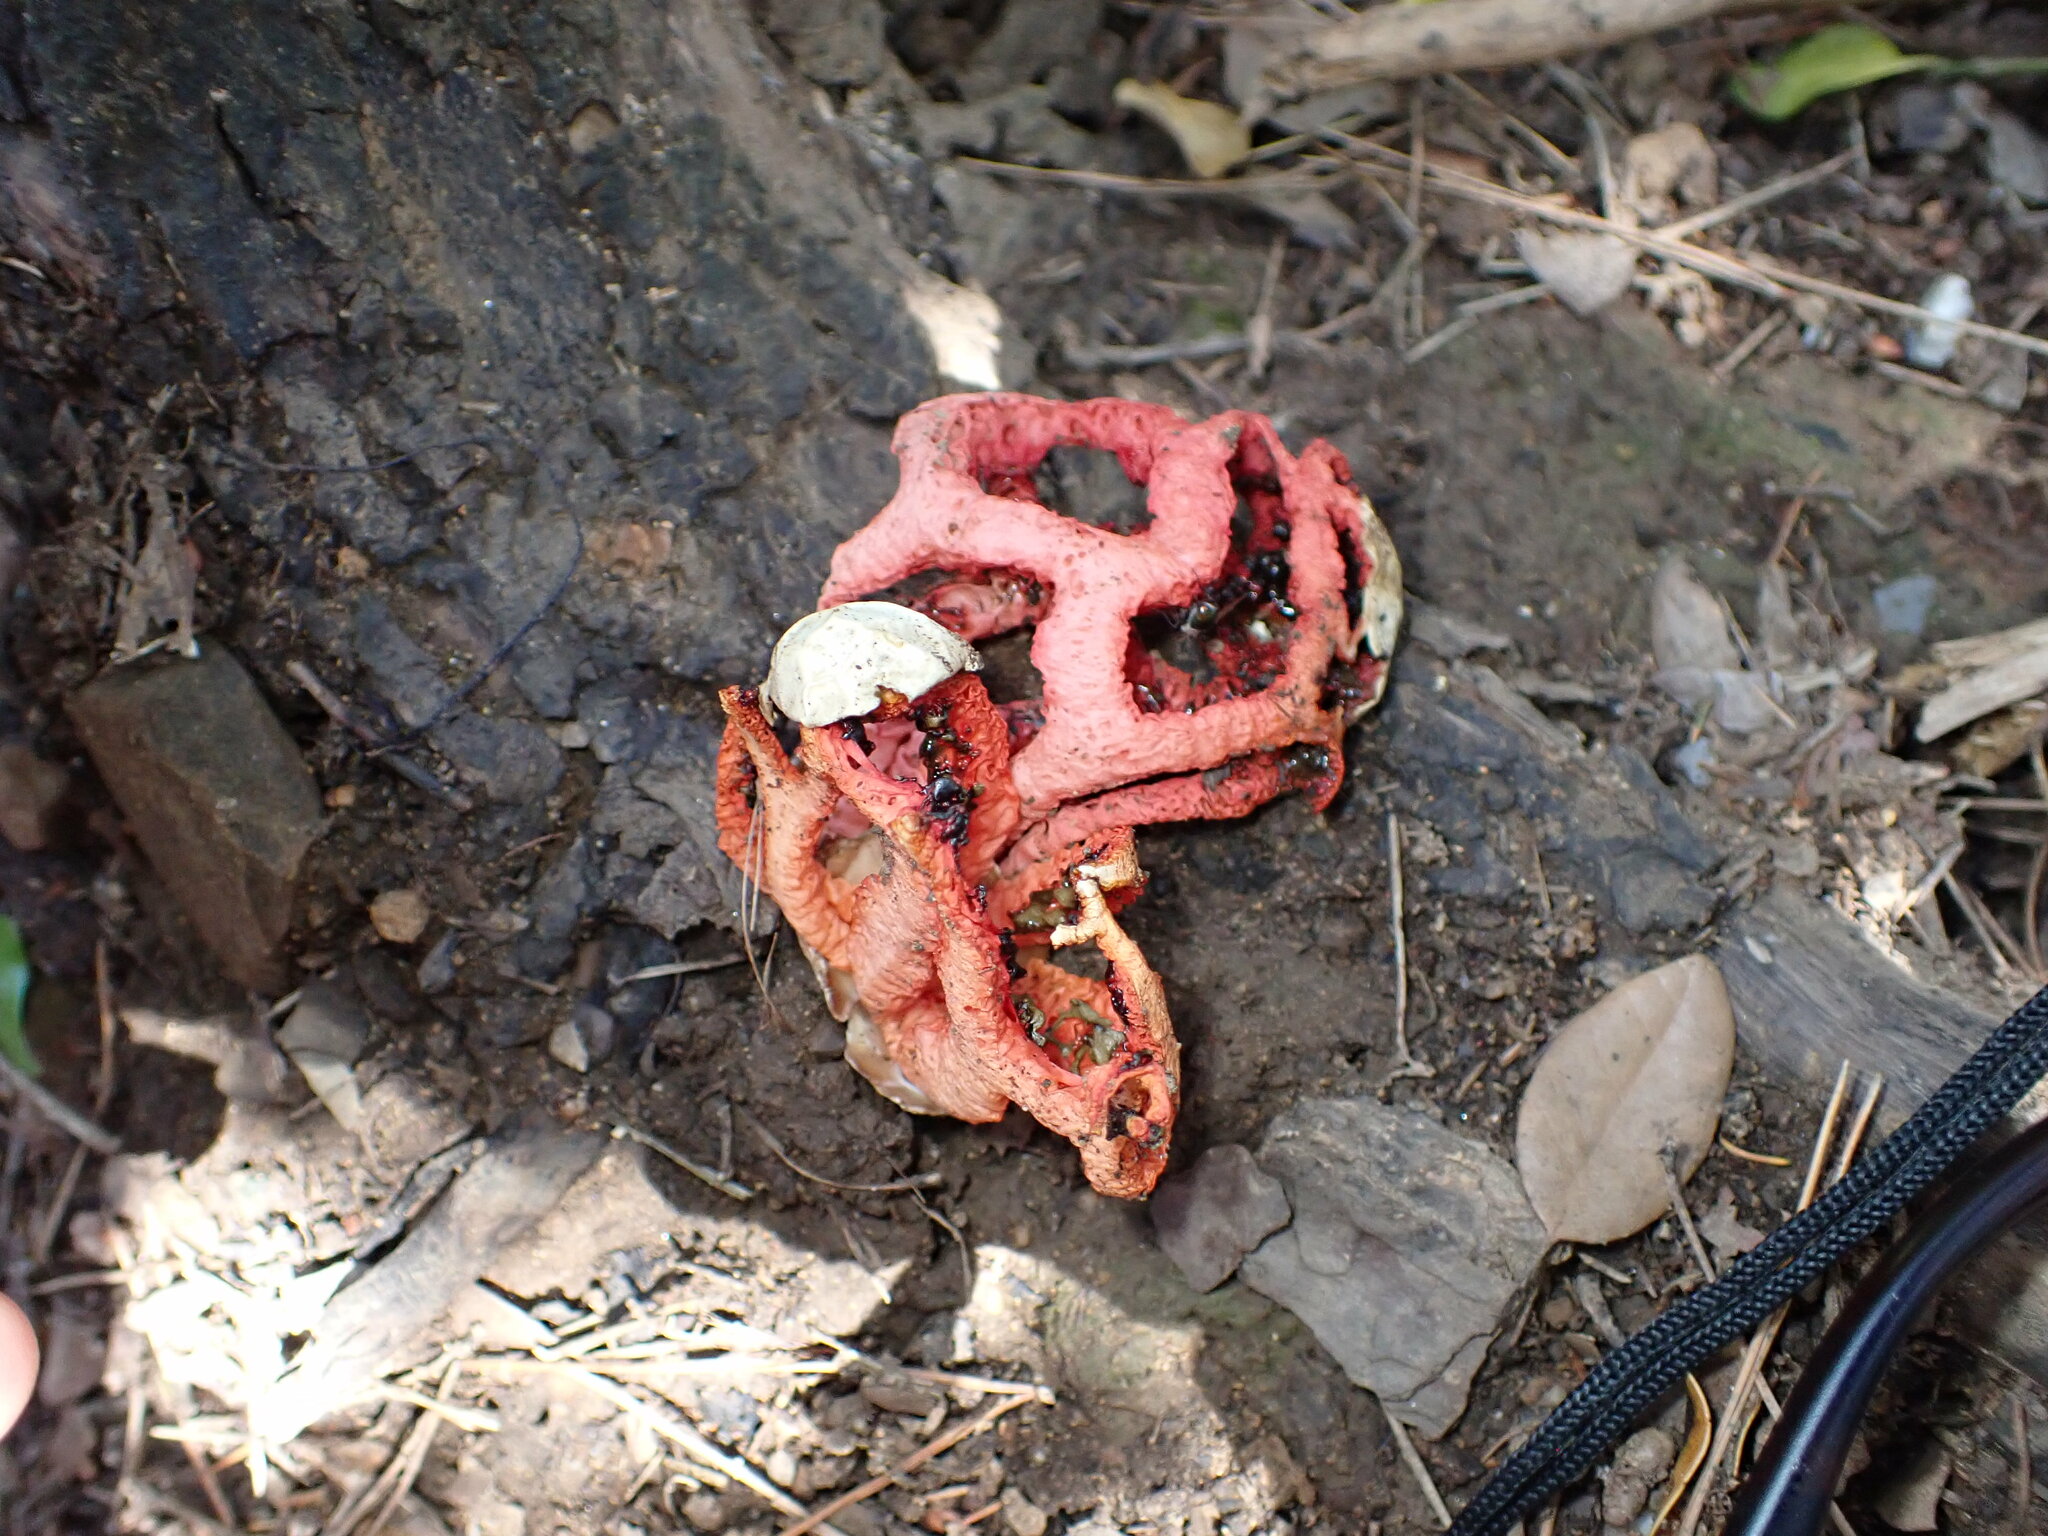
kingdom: Fungi
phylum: Basidiomycota
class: Agaricomycetes
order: Phallales
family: Phallaceae
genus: Clathrus
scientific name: Clathrus ruber
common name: Red cage
